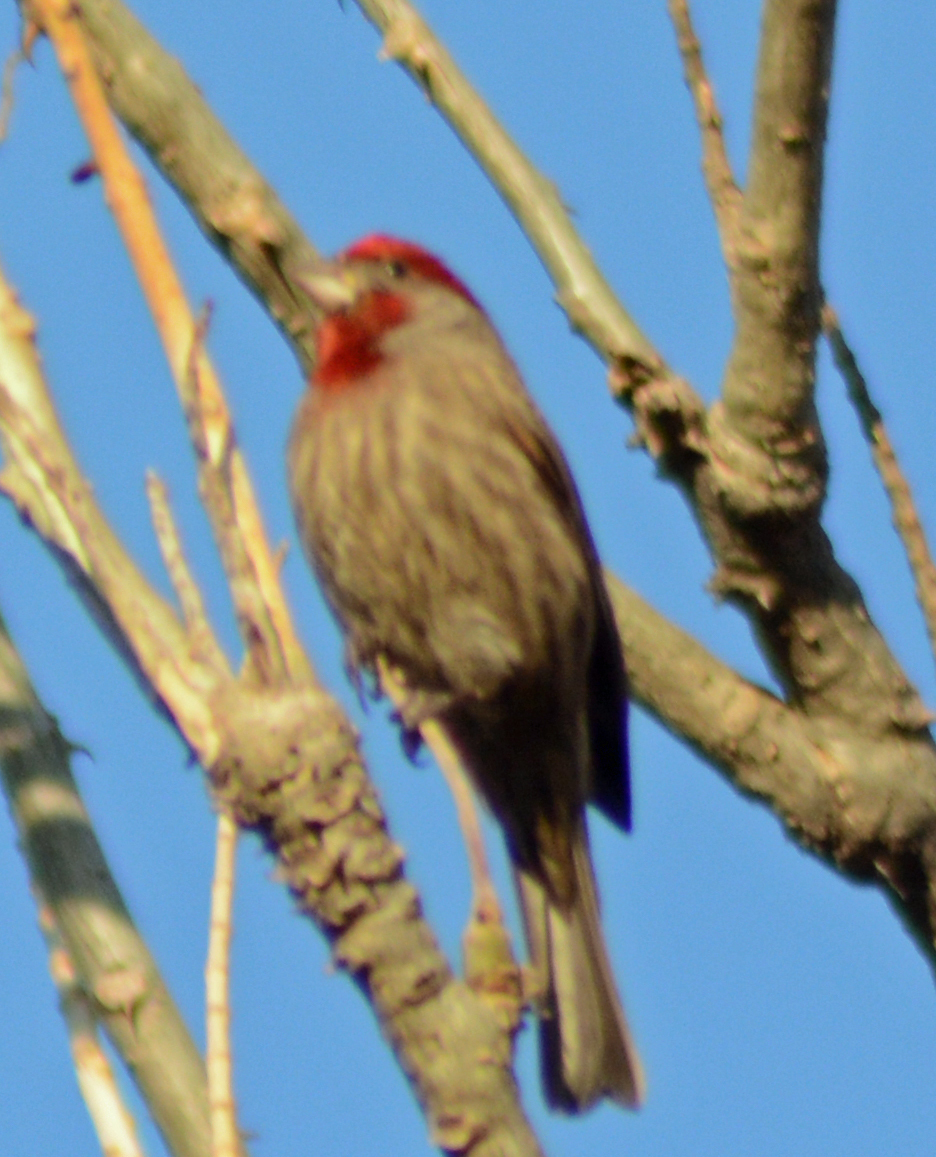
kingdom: Animalia
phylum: Chordata
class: Aves
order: Passeriformes
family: Fringillidae
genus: Haemorhous
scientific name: Haemorhous mexicanus
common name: House finch
